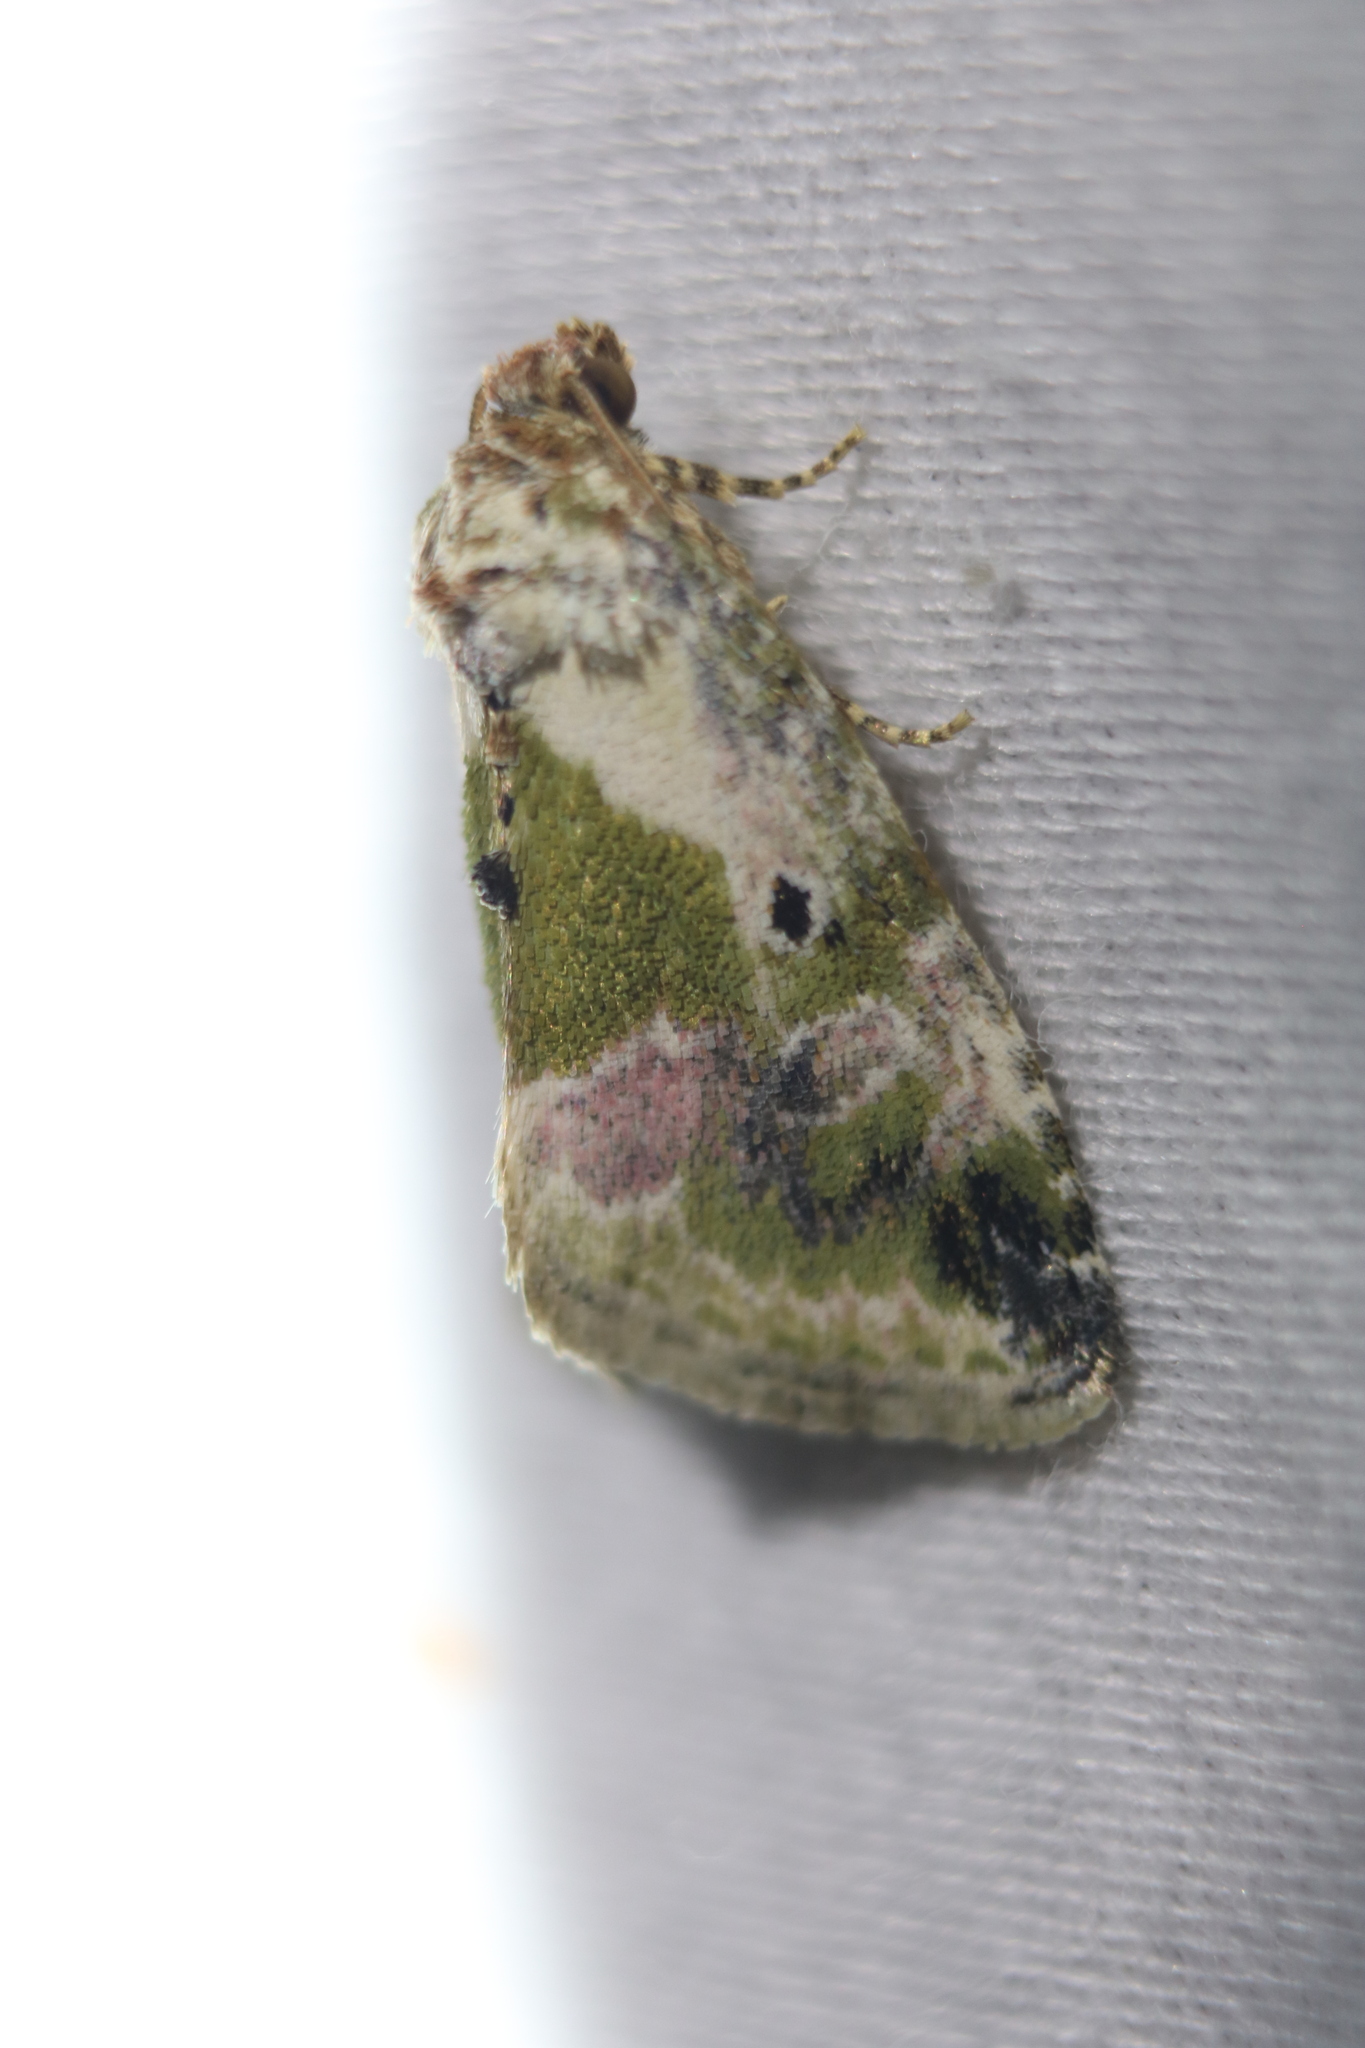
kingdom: Animalia
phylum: Arthropoda
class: Insecta
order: Lepidoptera
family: Noctuidae
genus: Maliattha
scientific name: Maliattha synochitis
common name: Black-dotted glyph
